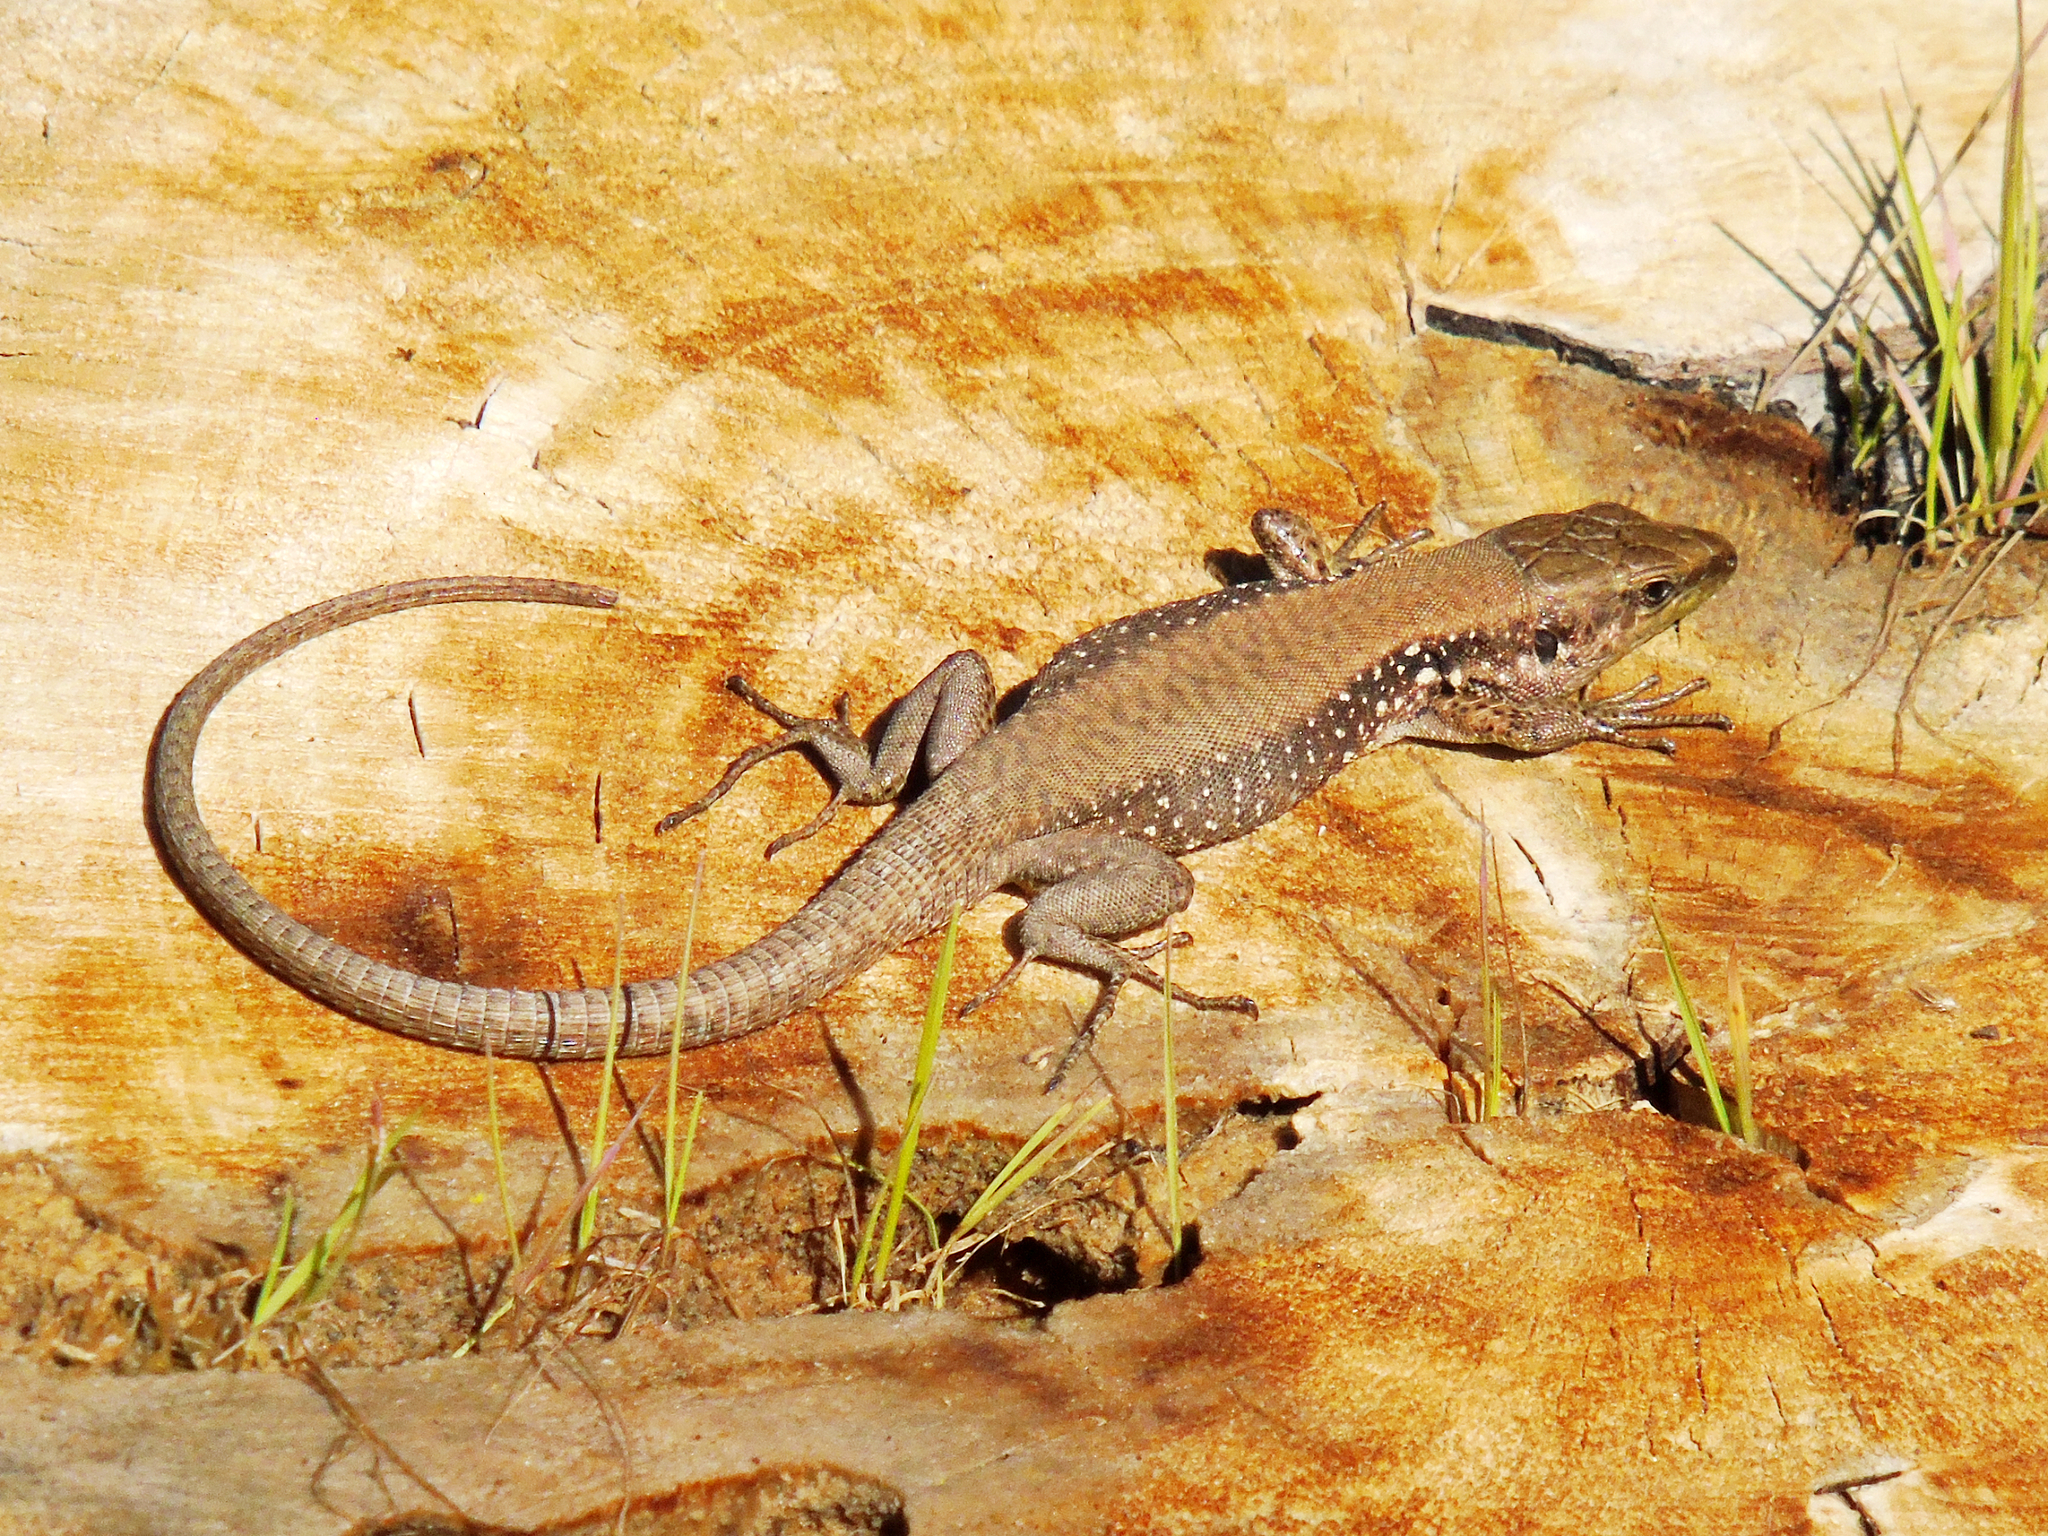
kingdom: Animalia
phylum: Chordata
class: Squamata
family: Lacertidae
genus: Phoenicolacerta
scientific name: Phoenicolacerta laevis
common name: Lebanon lizard
